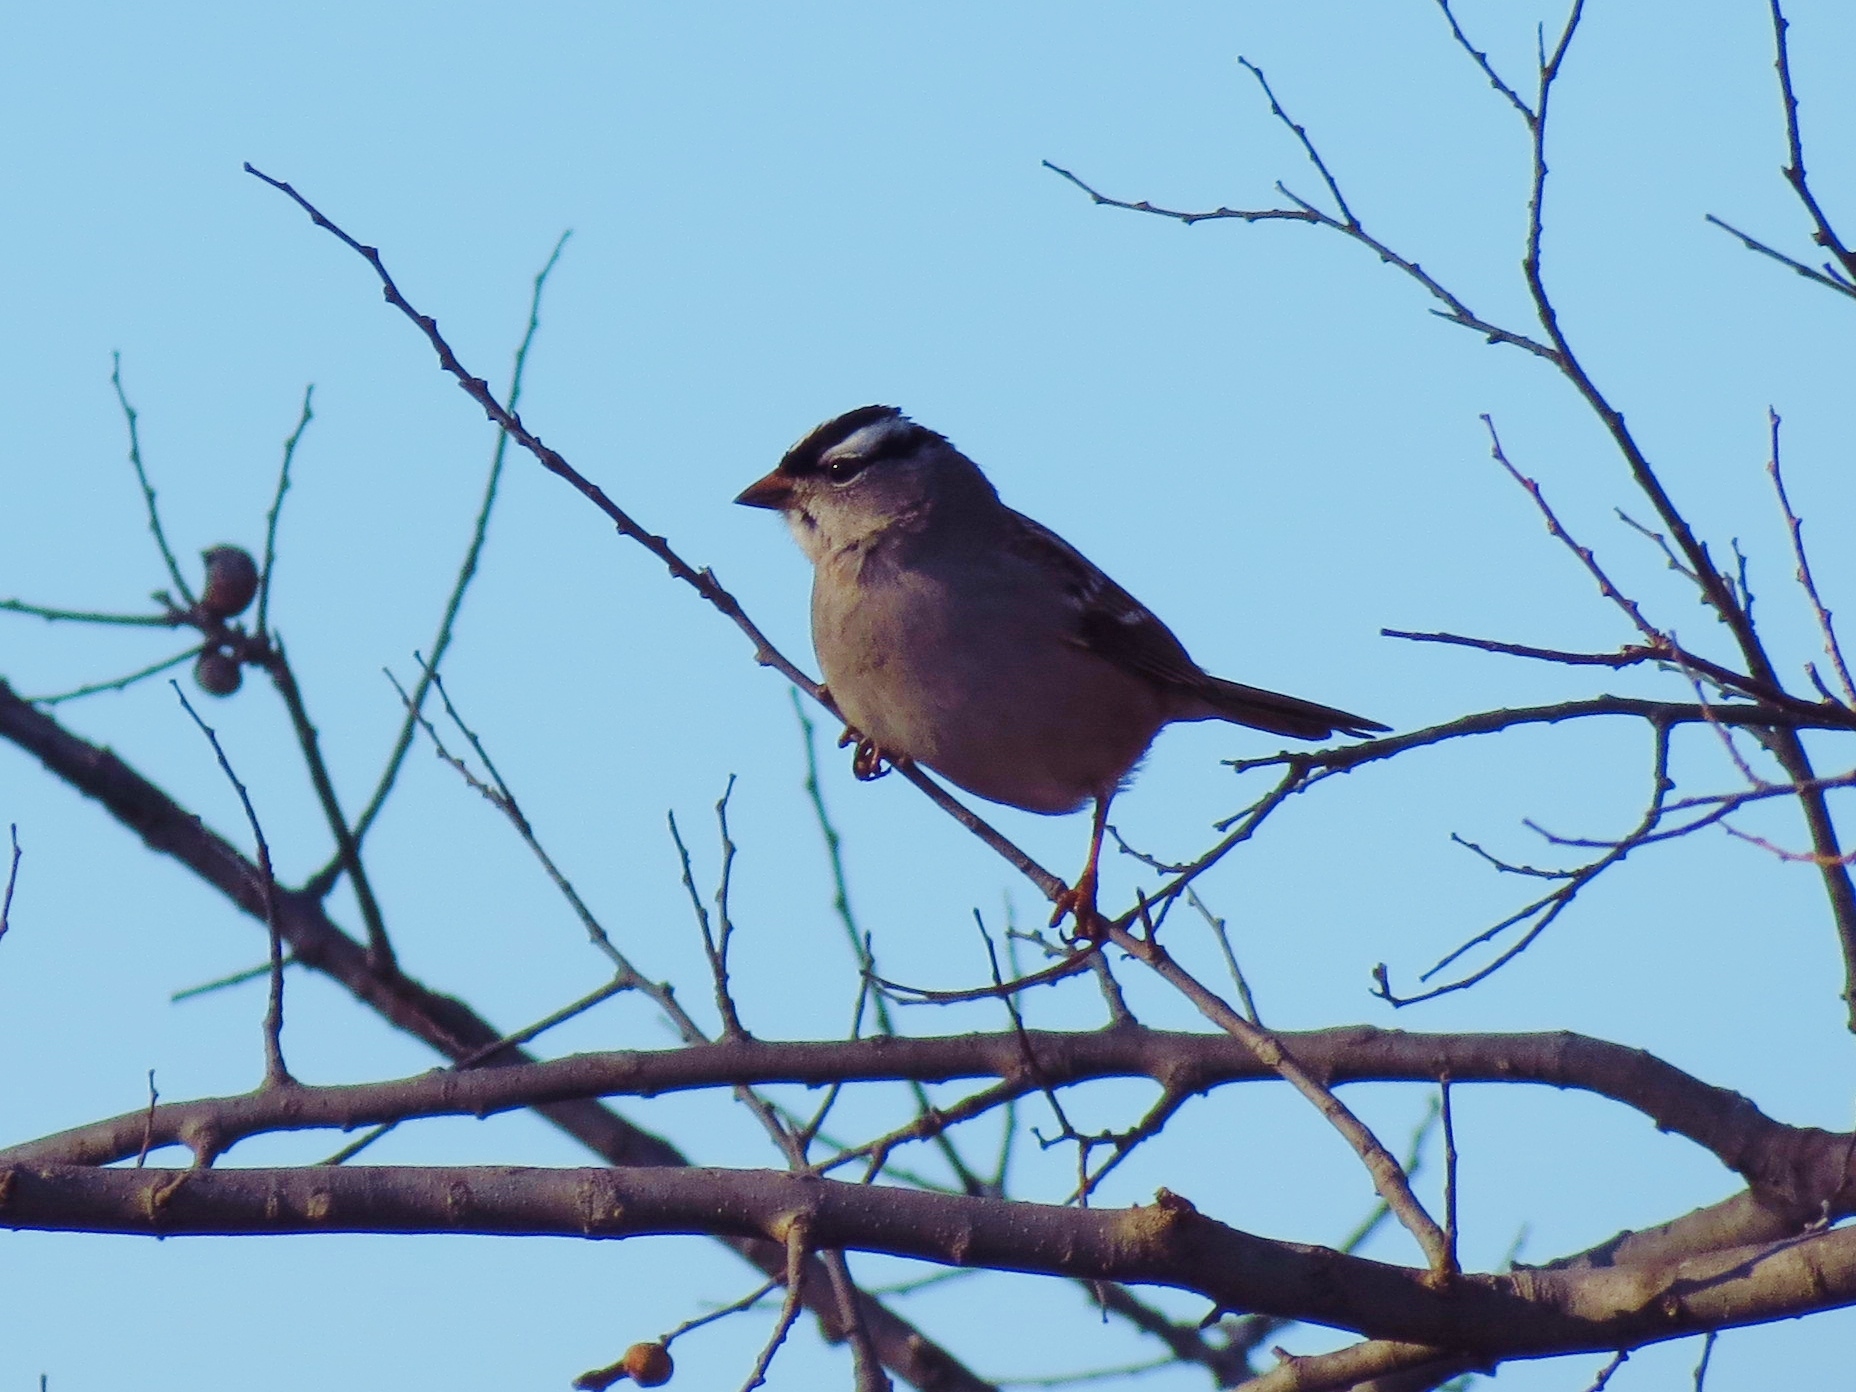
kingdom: Animalia
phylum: Chordata
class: Aves
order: Passeriformes
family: Passerellidae
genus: Zonotrichia
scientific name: Zonotrichia leucophrys
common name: White-crowned sparrow
